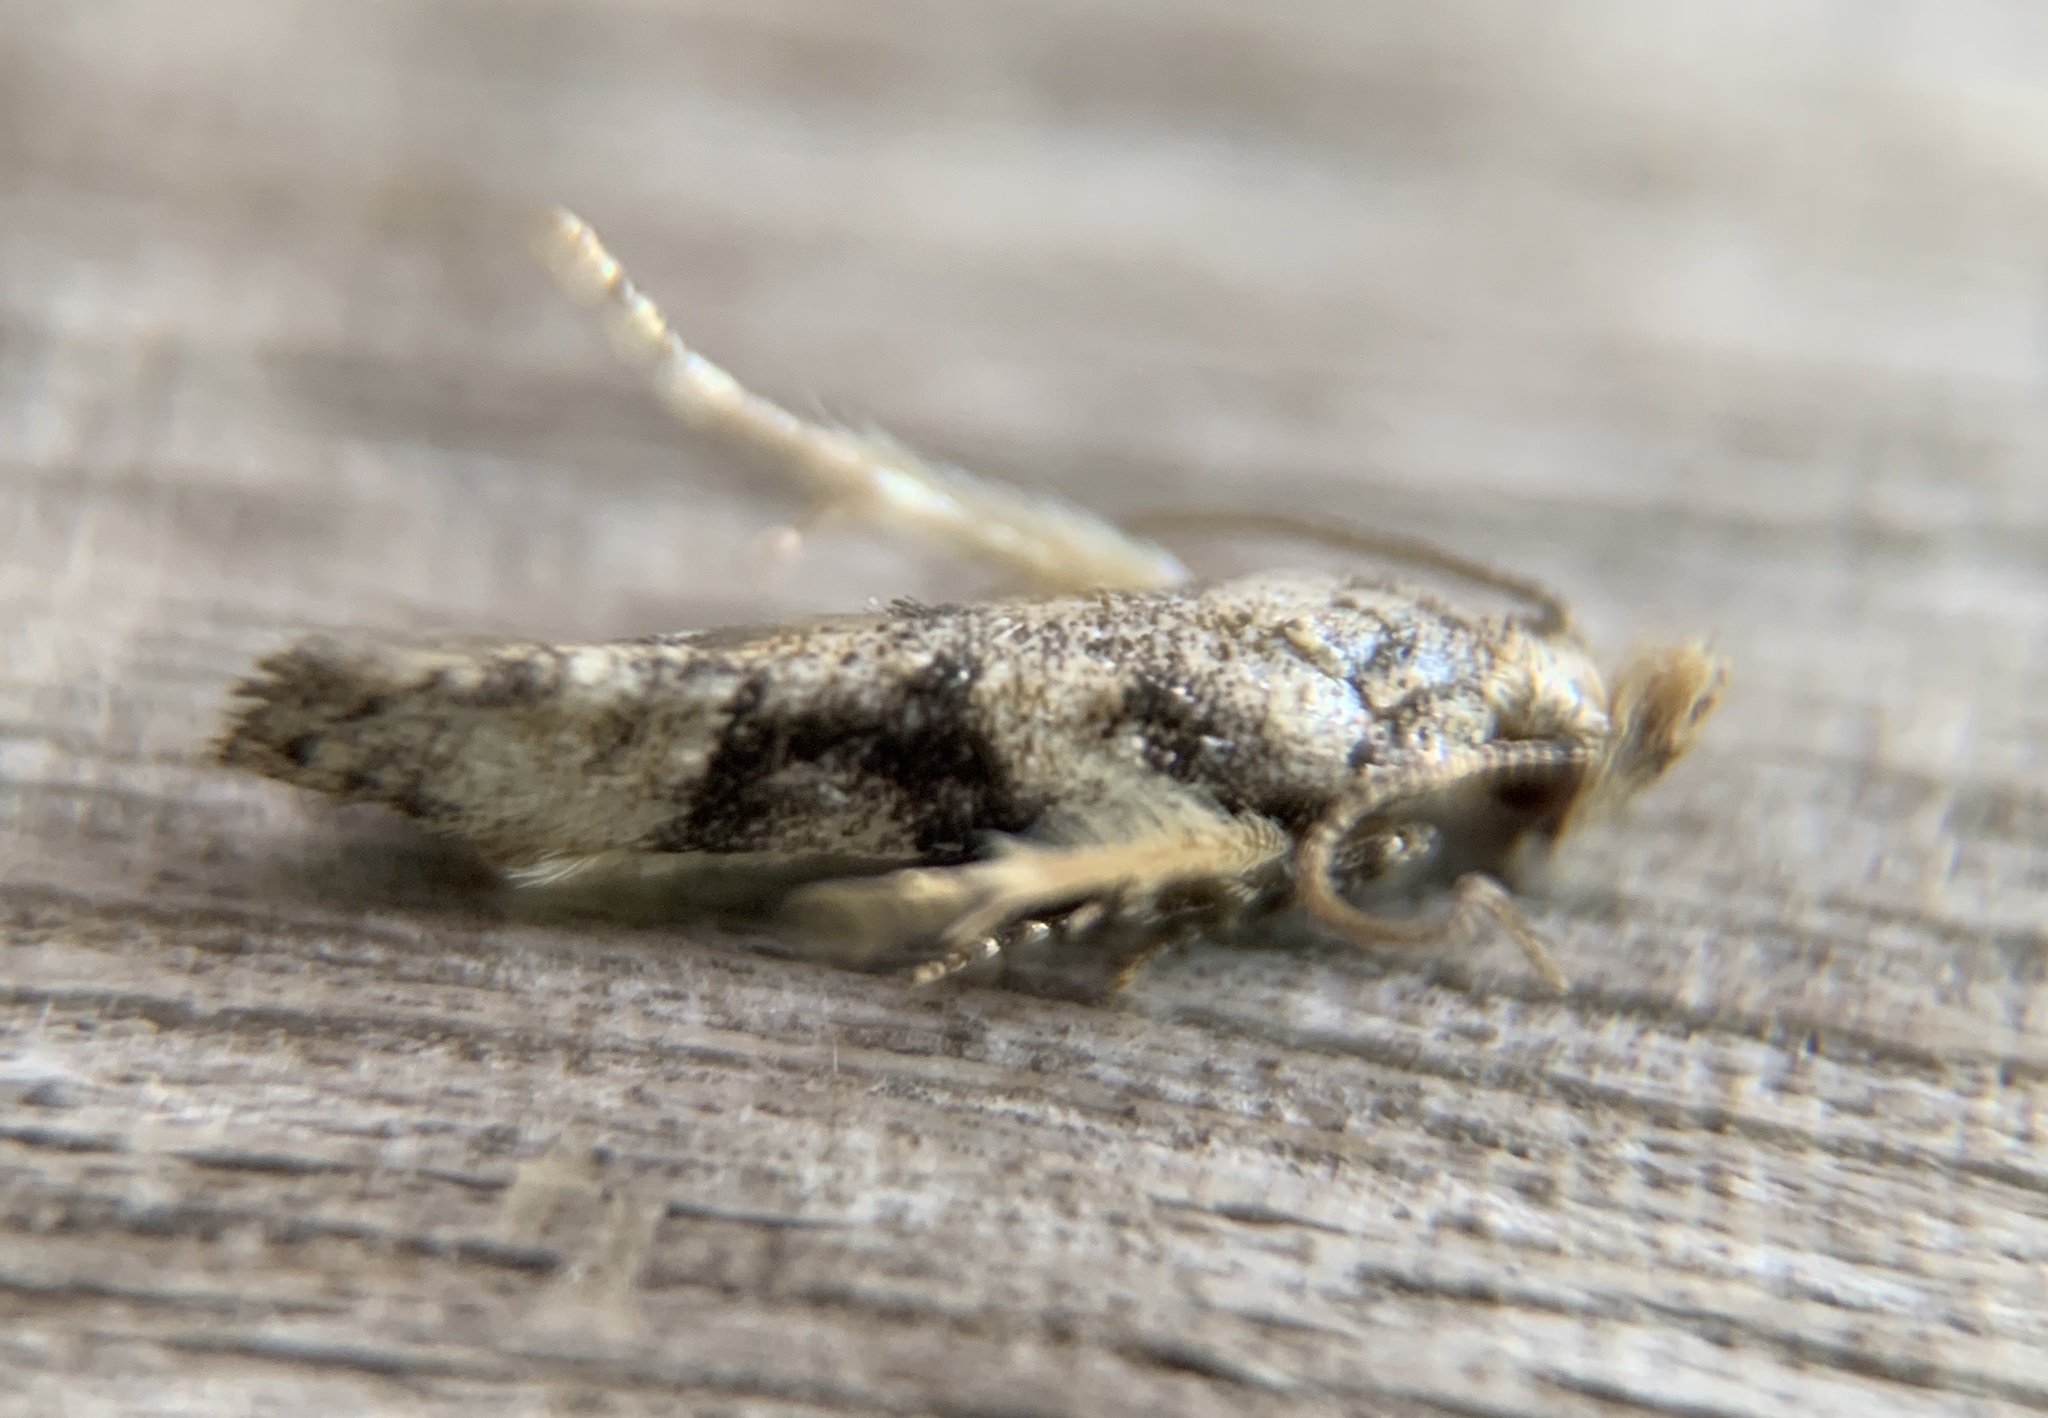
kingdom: Animalia
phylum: Arthropoda
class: Insecta
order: Lepidoptera
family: Gelechiidae
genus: Coleotechnites
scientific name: Coleotechnites atrupictella
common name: Spruce micromoth
